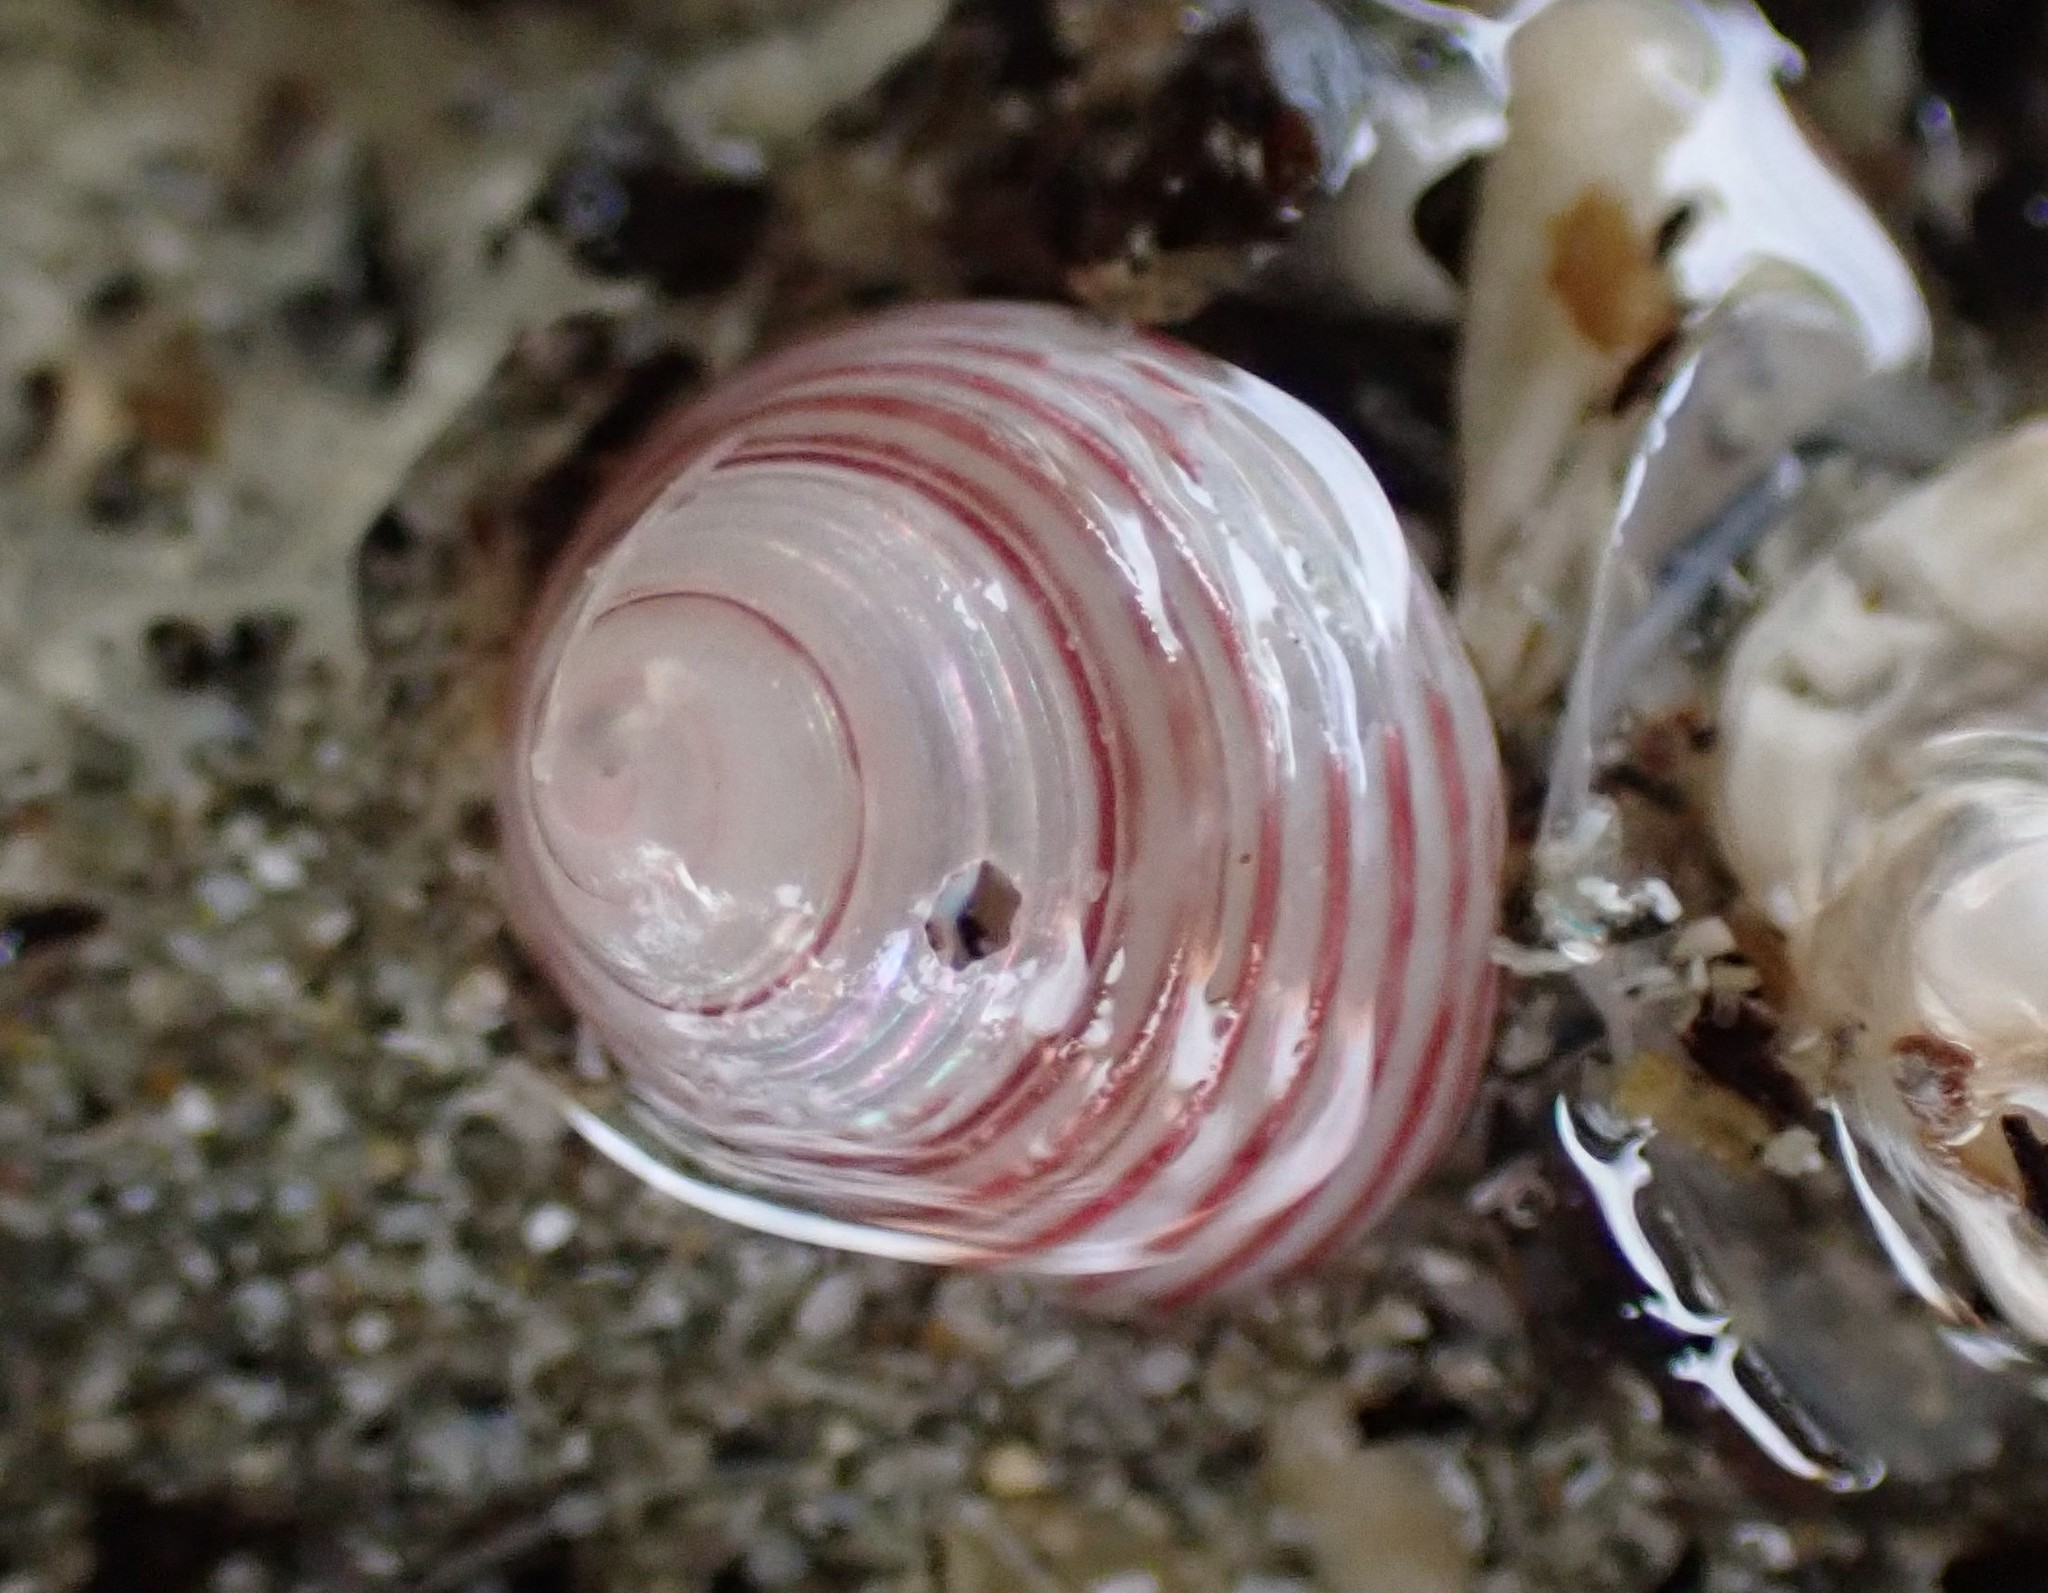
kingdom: Animalia
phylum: Mollusca
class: Gastropoda
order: Trochida
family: Trochidae
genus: Roseaplagis
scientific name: Roseaplagis rufozona
